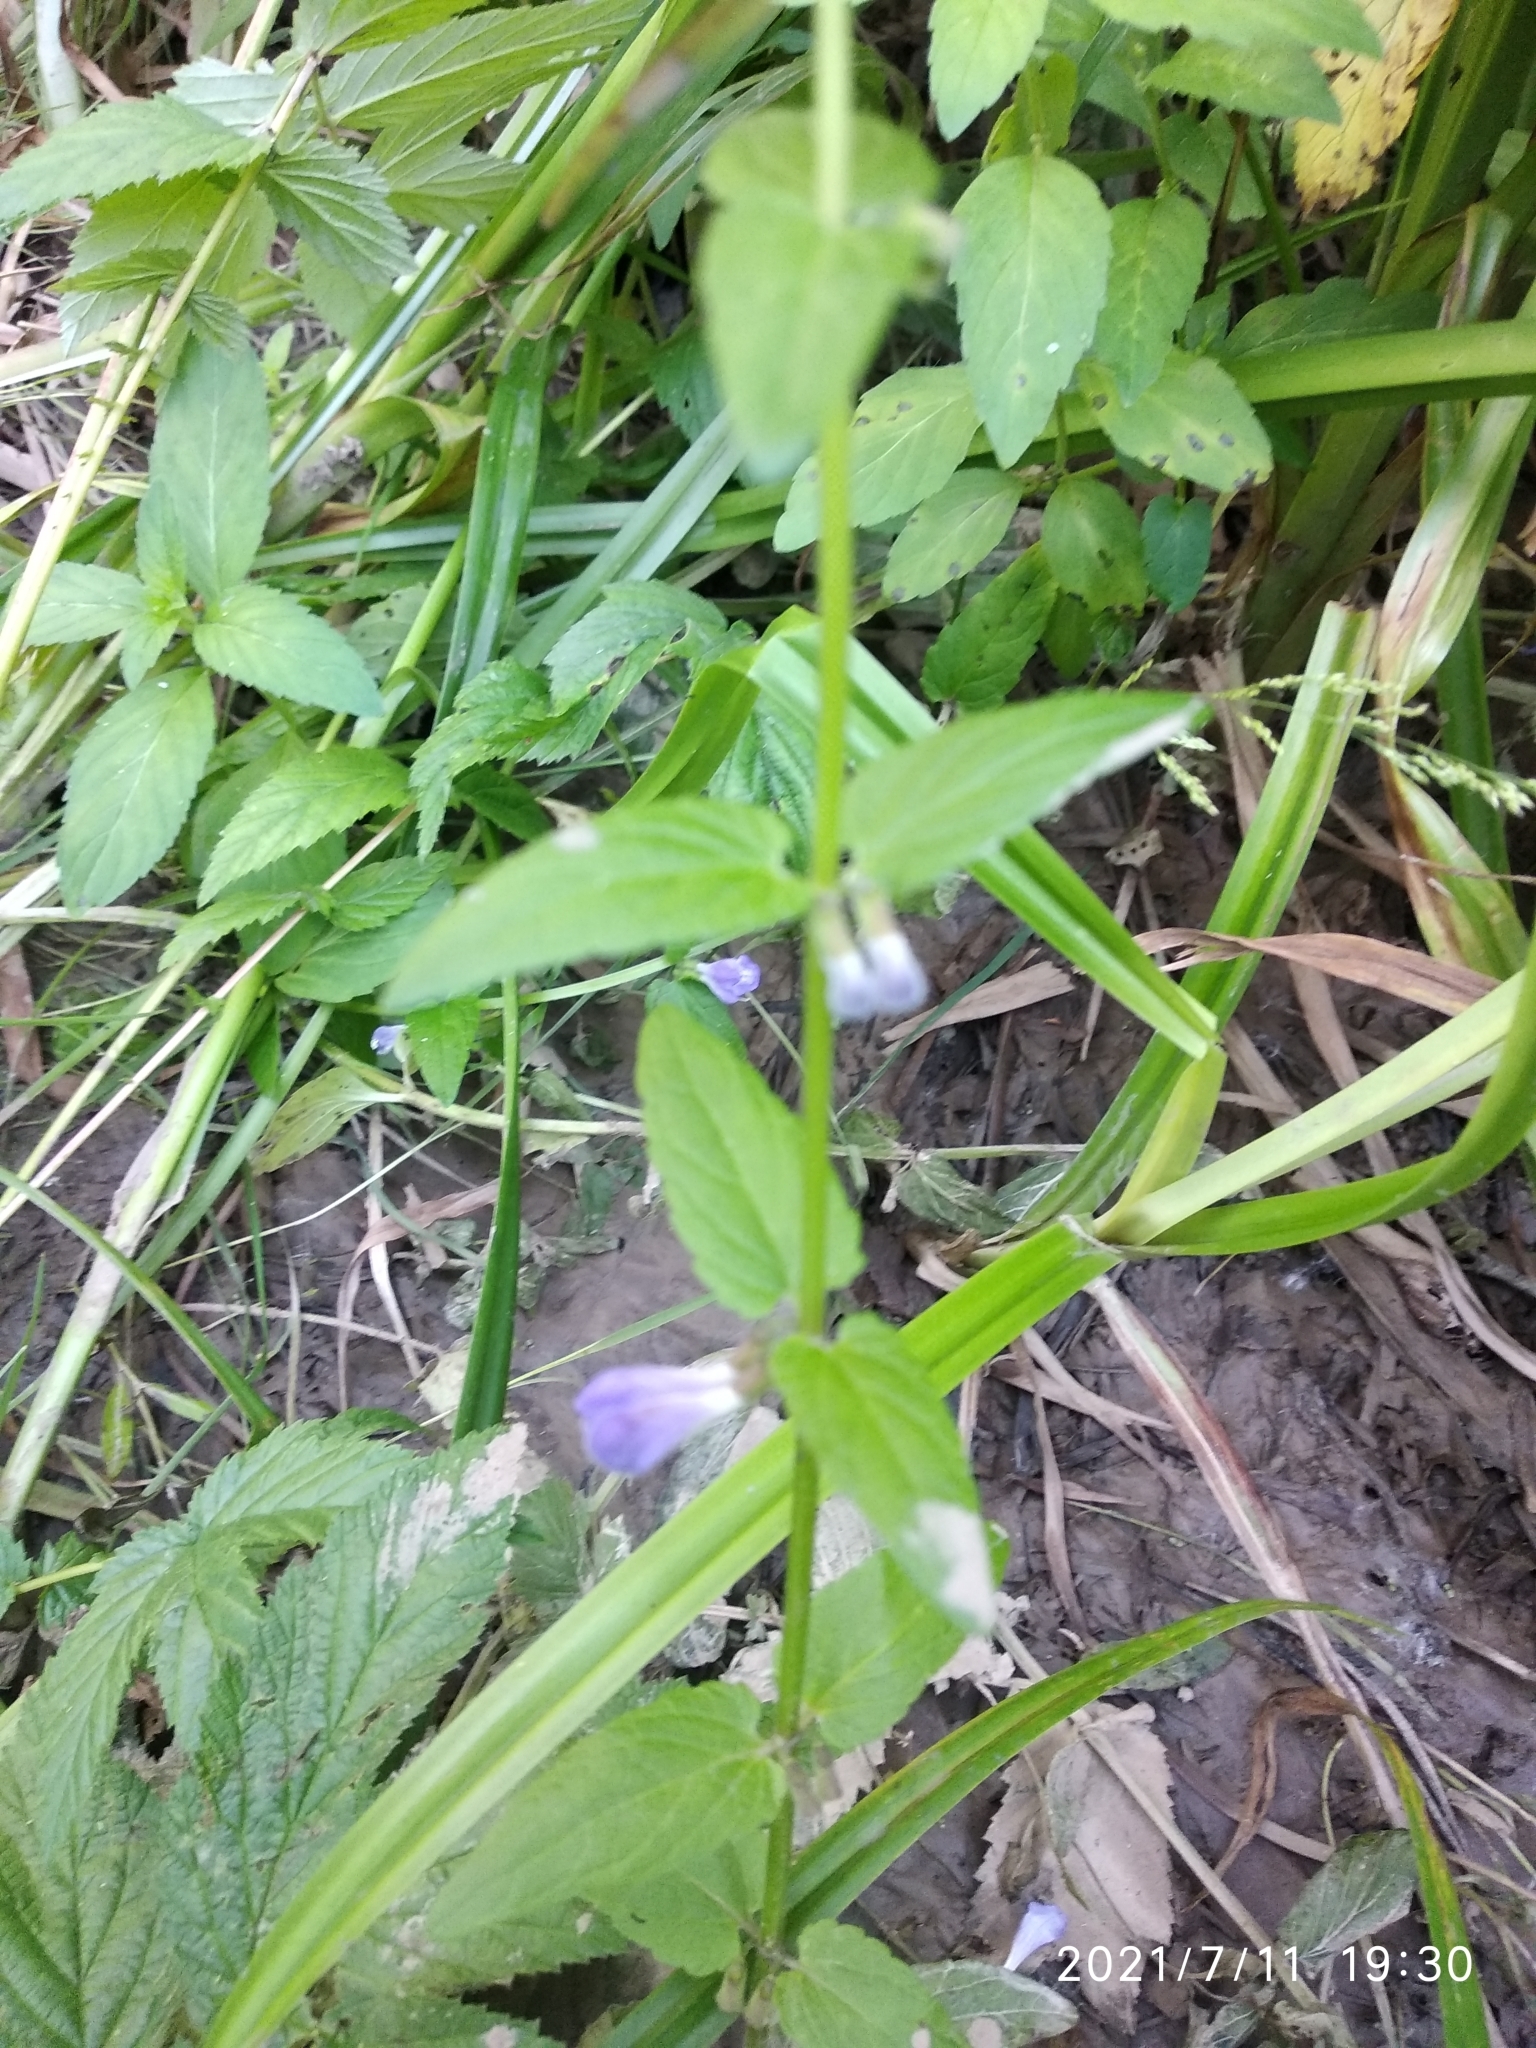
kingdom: Plantae
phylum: Tracheophyta
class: Magnoliopsida
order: Lamiales
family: Lamiaceae
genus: Scutellaria
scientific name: Scutellaria galericulata
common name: Skullcap
